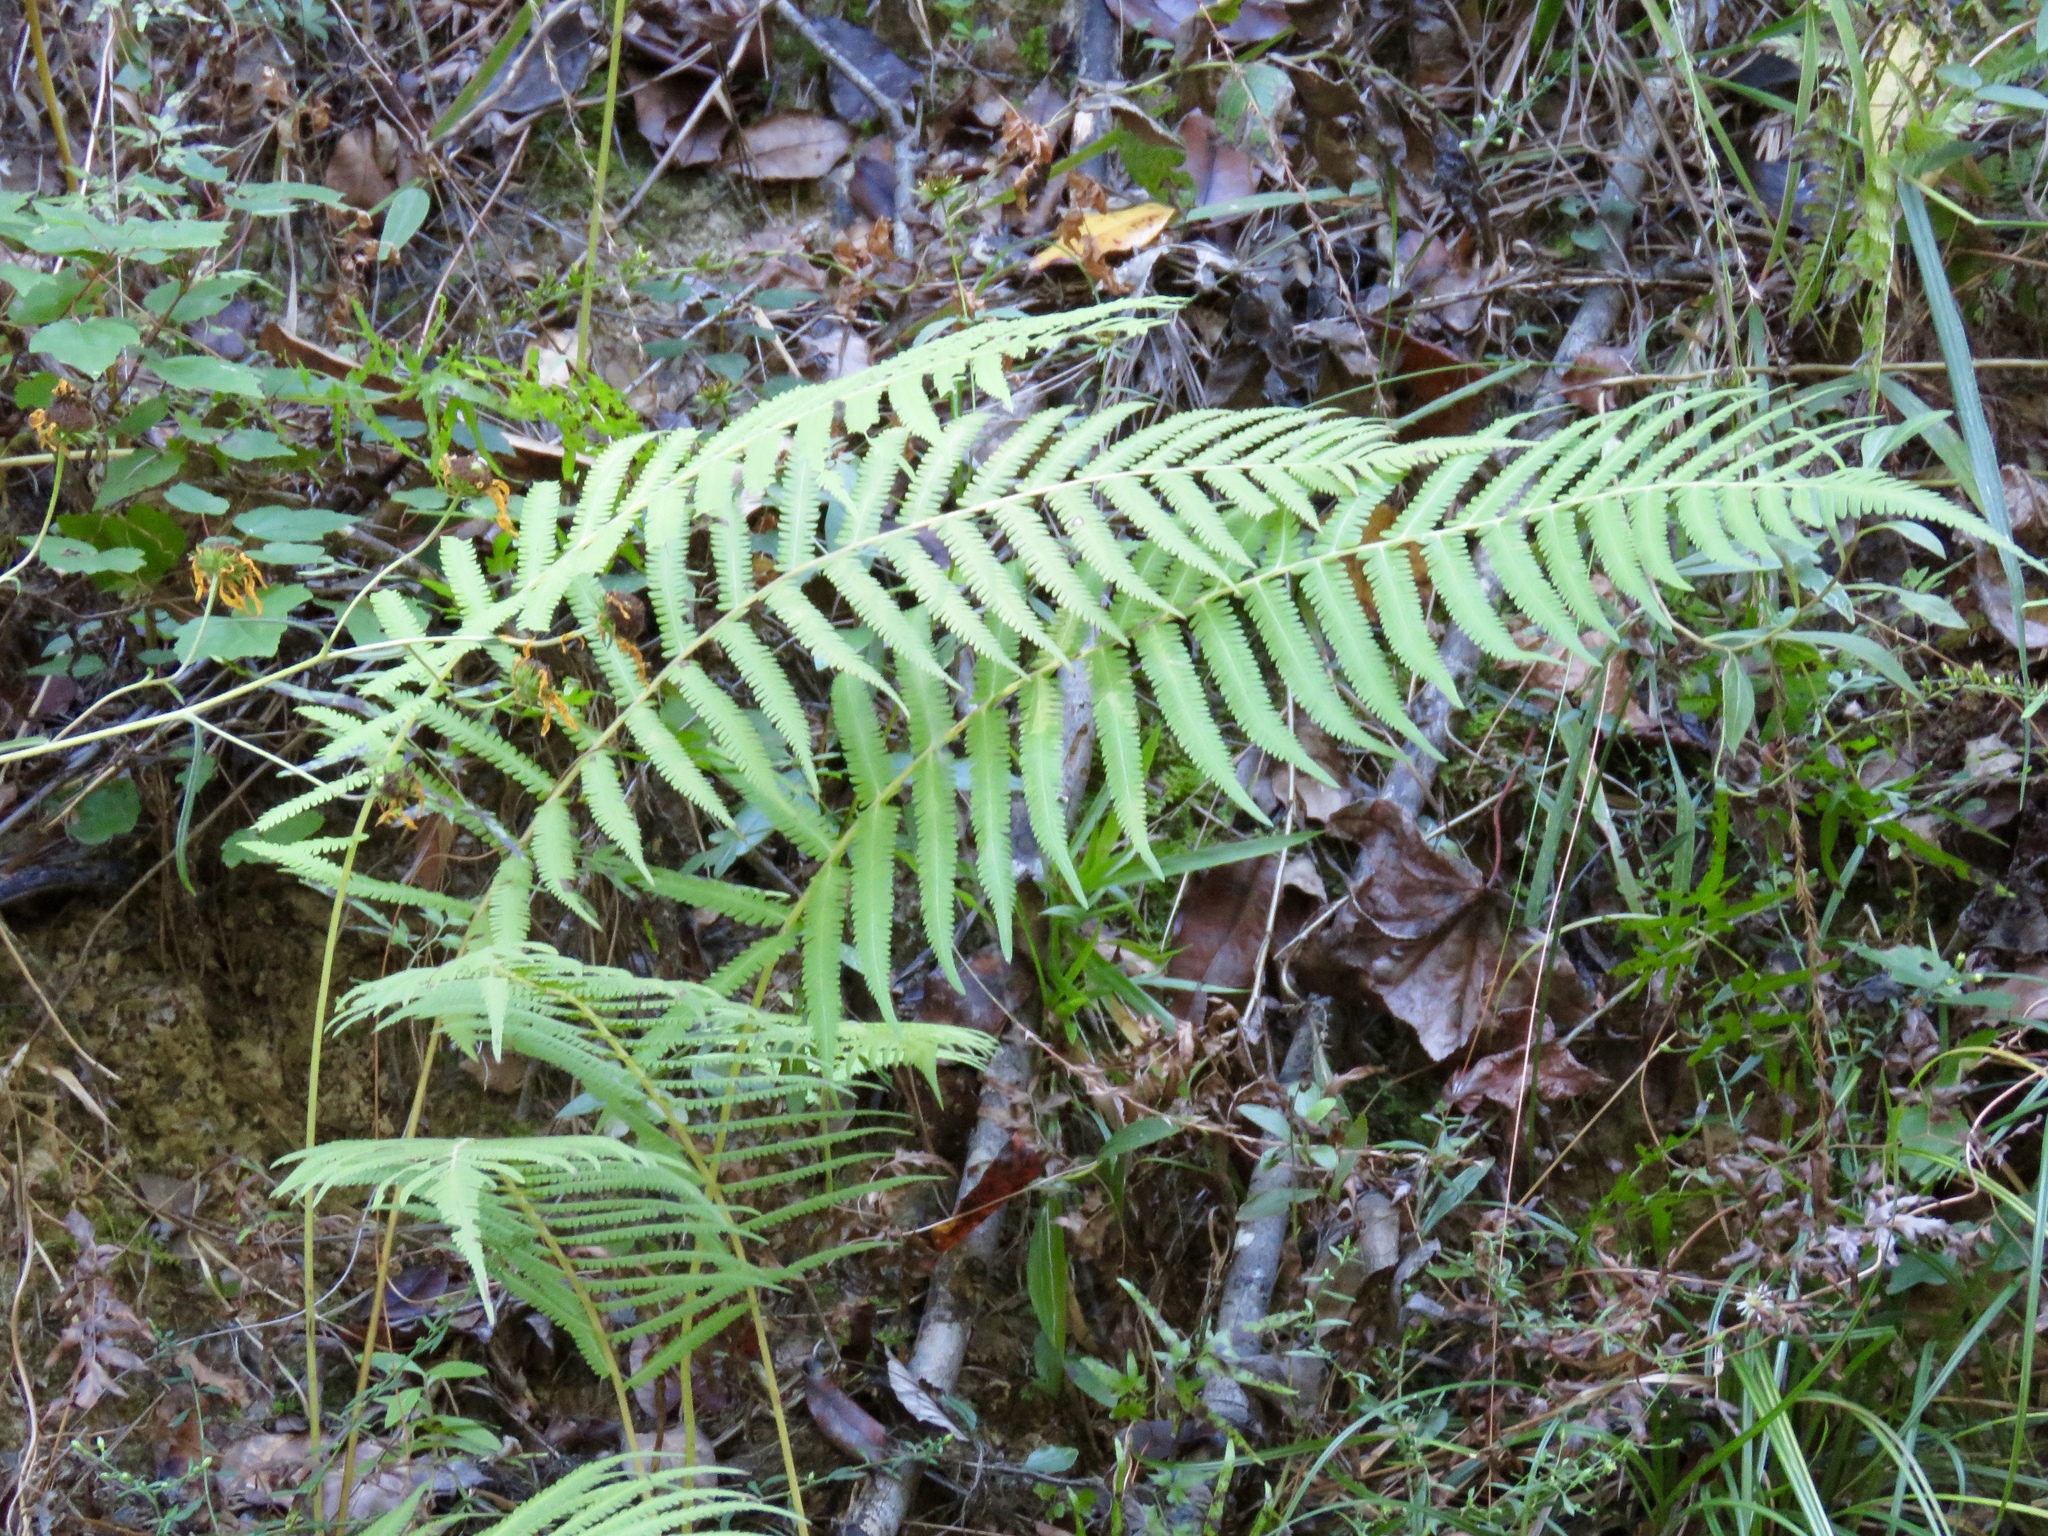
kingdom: Plantae
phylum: Tracheophyta
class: Polypodiopsida
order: Osmundales
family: Osmundaceae
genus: Osmundastrum
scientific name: Osmundastrum cinnamomeum
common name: Cinnamon fern
